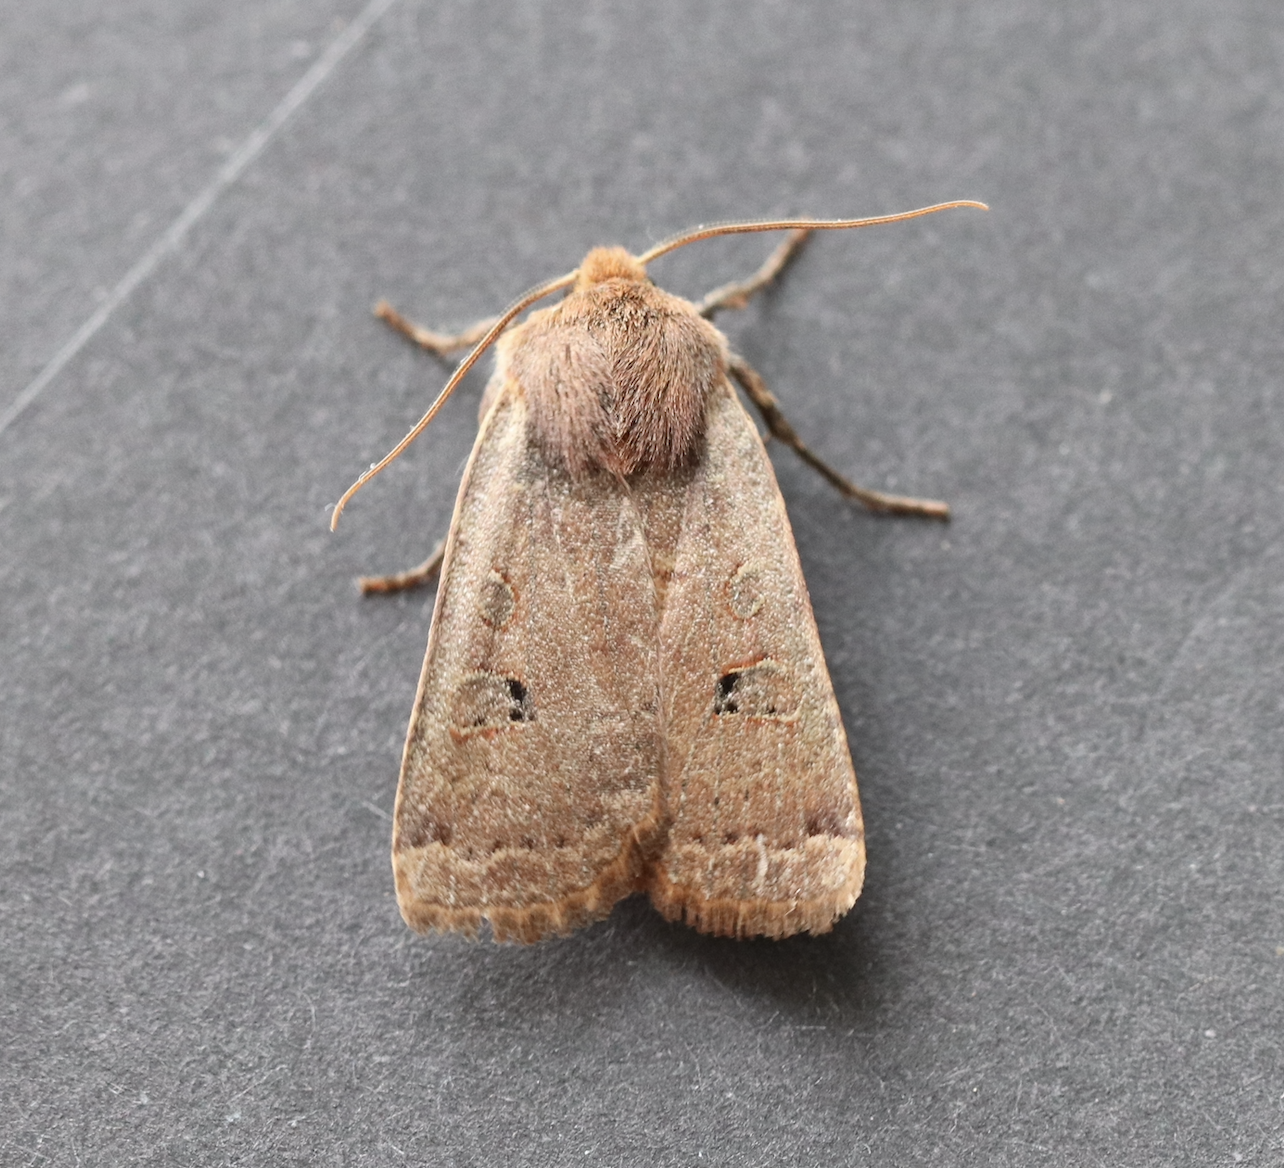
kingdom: Animalia
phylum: Arthropoda
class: Insecta
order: Lepidoptera
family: Noctuidae
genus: Conistra
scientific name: Conistra erythrocephala
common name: Red-headed chestnut
